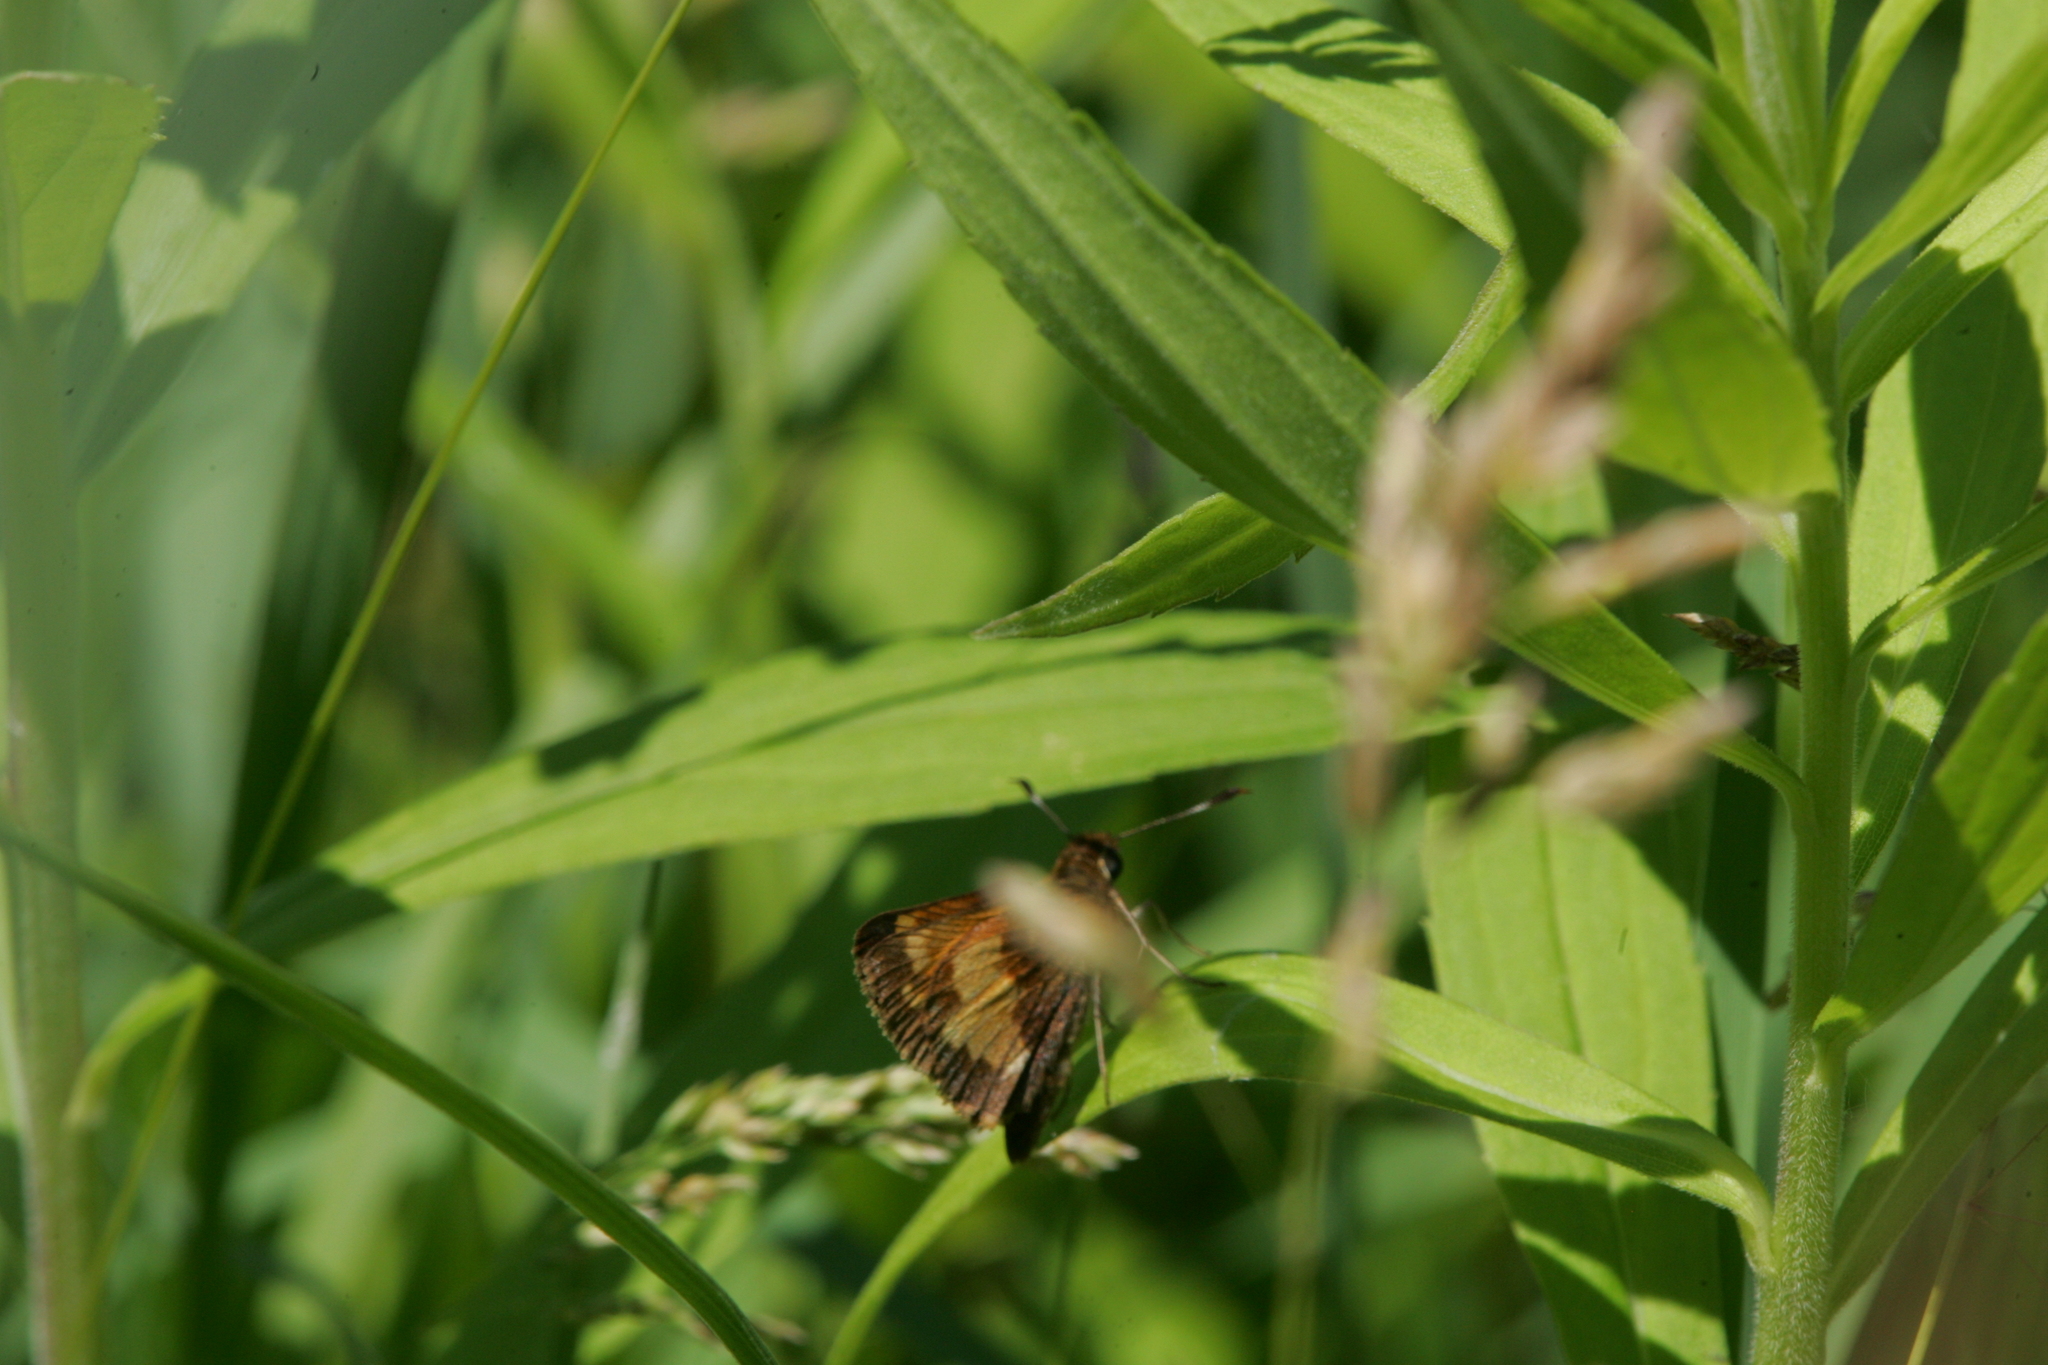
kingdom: Animalia
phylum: Arthropoda
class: Insecta
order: Lepidoptera
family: Hesperiidae
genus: Lon
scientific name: Lon hobomok
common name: Hobomok skipper
